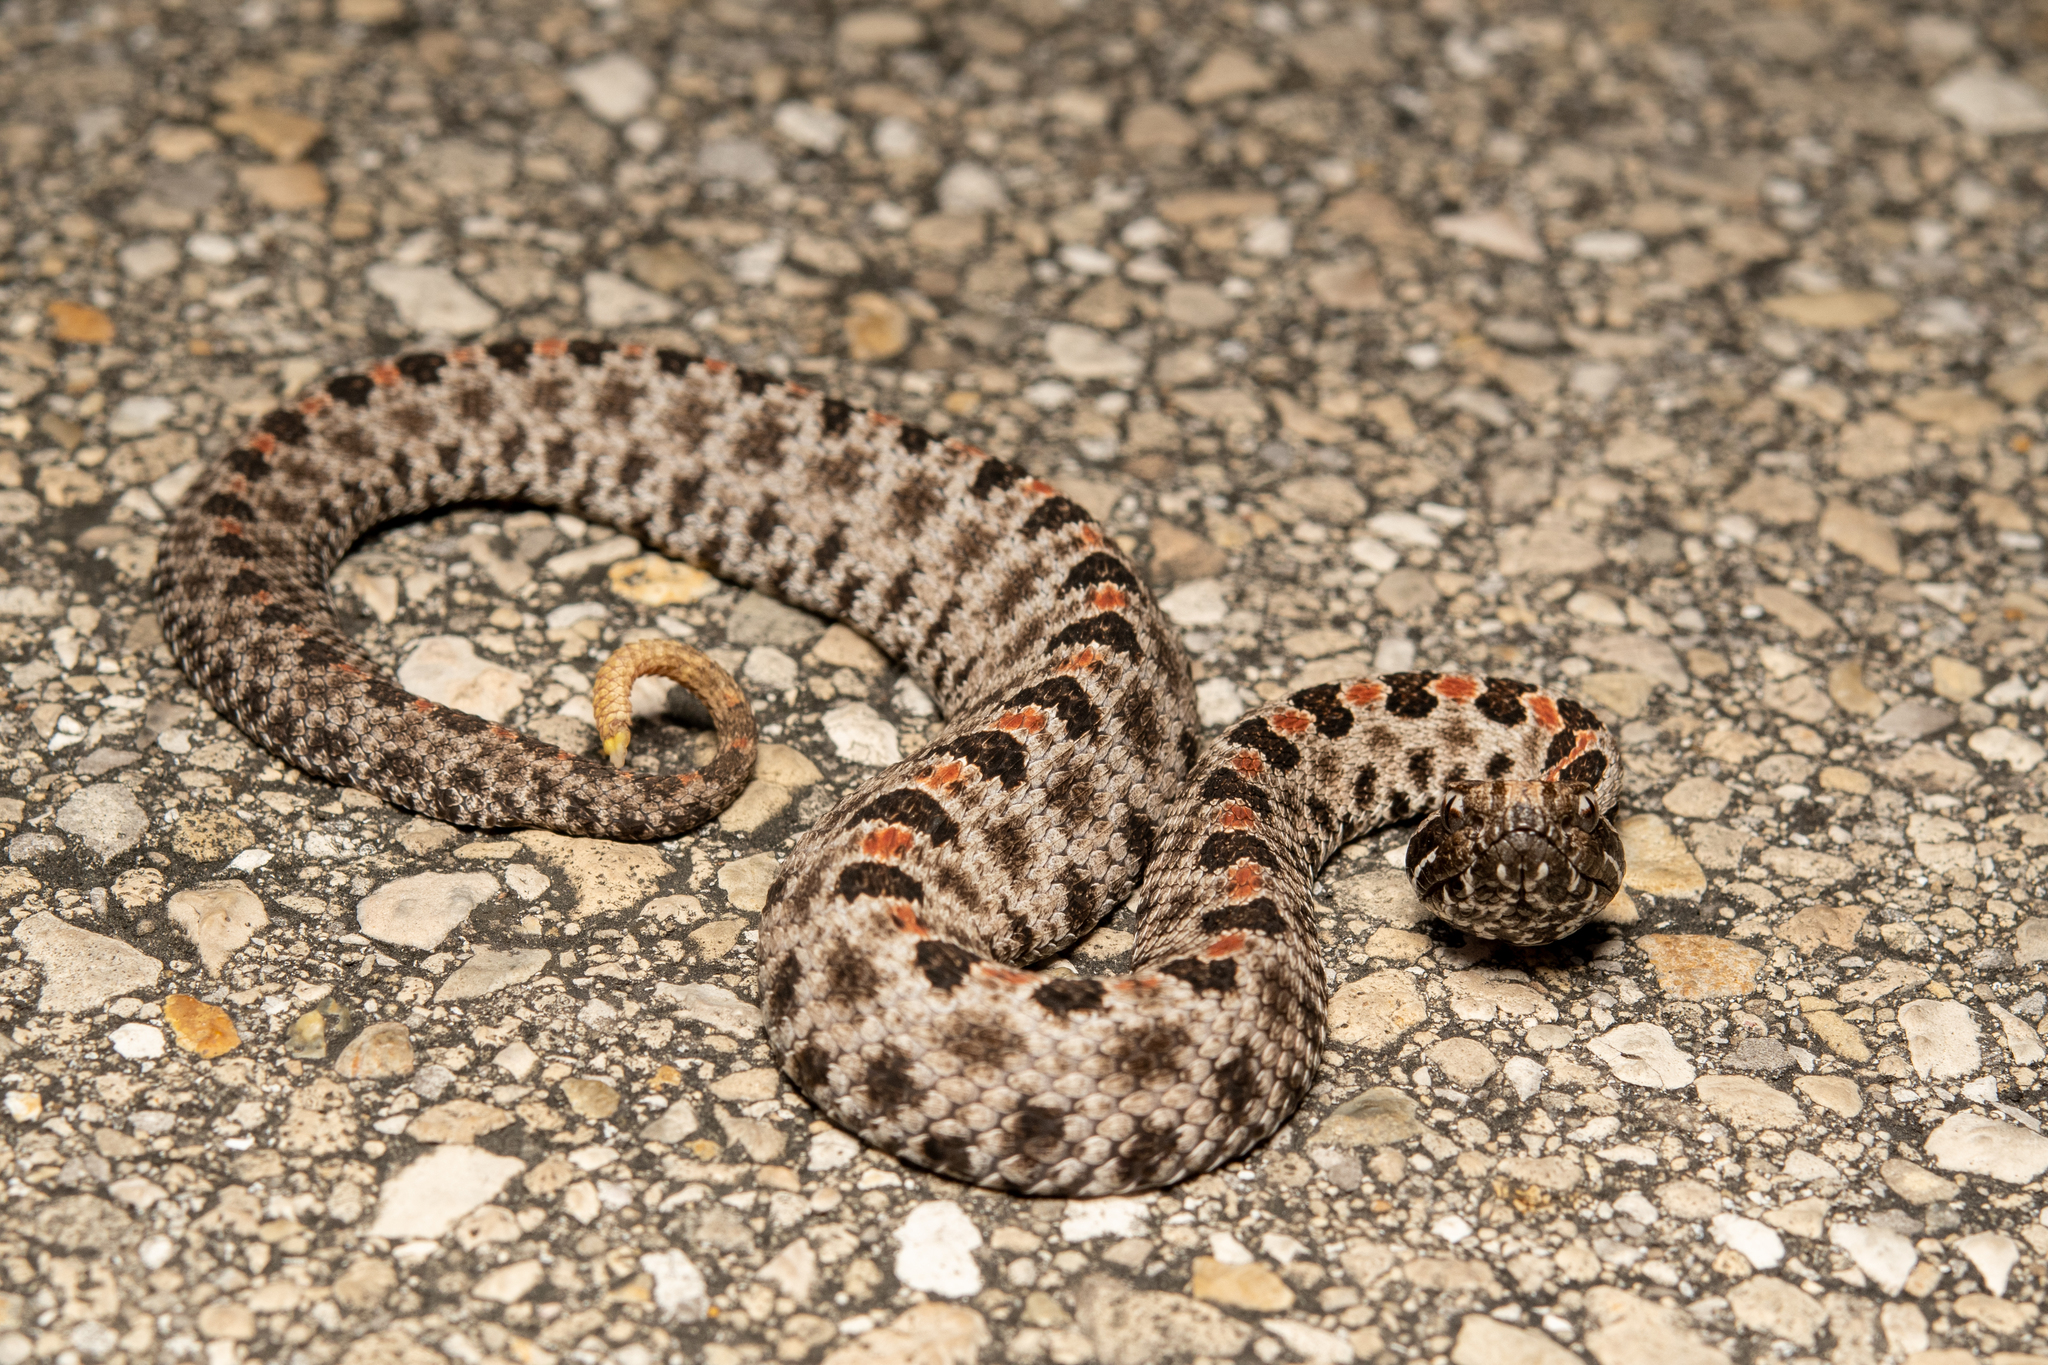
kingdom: Animalia
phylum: Chordata
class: Squamata
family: Viperidae
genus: Sistrurus
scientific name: Sistrurus miliarius
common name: Pygmy rattlesnake
